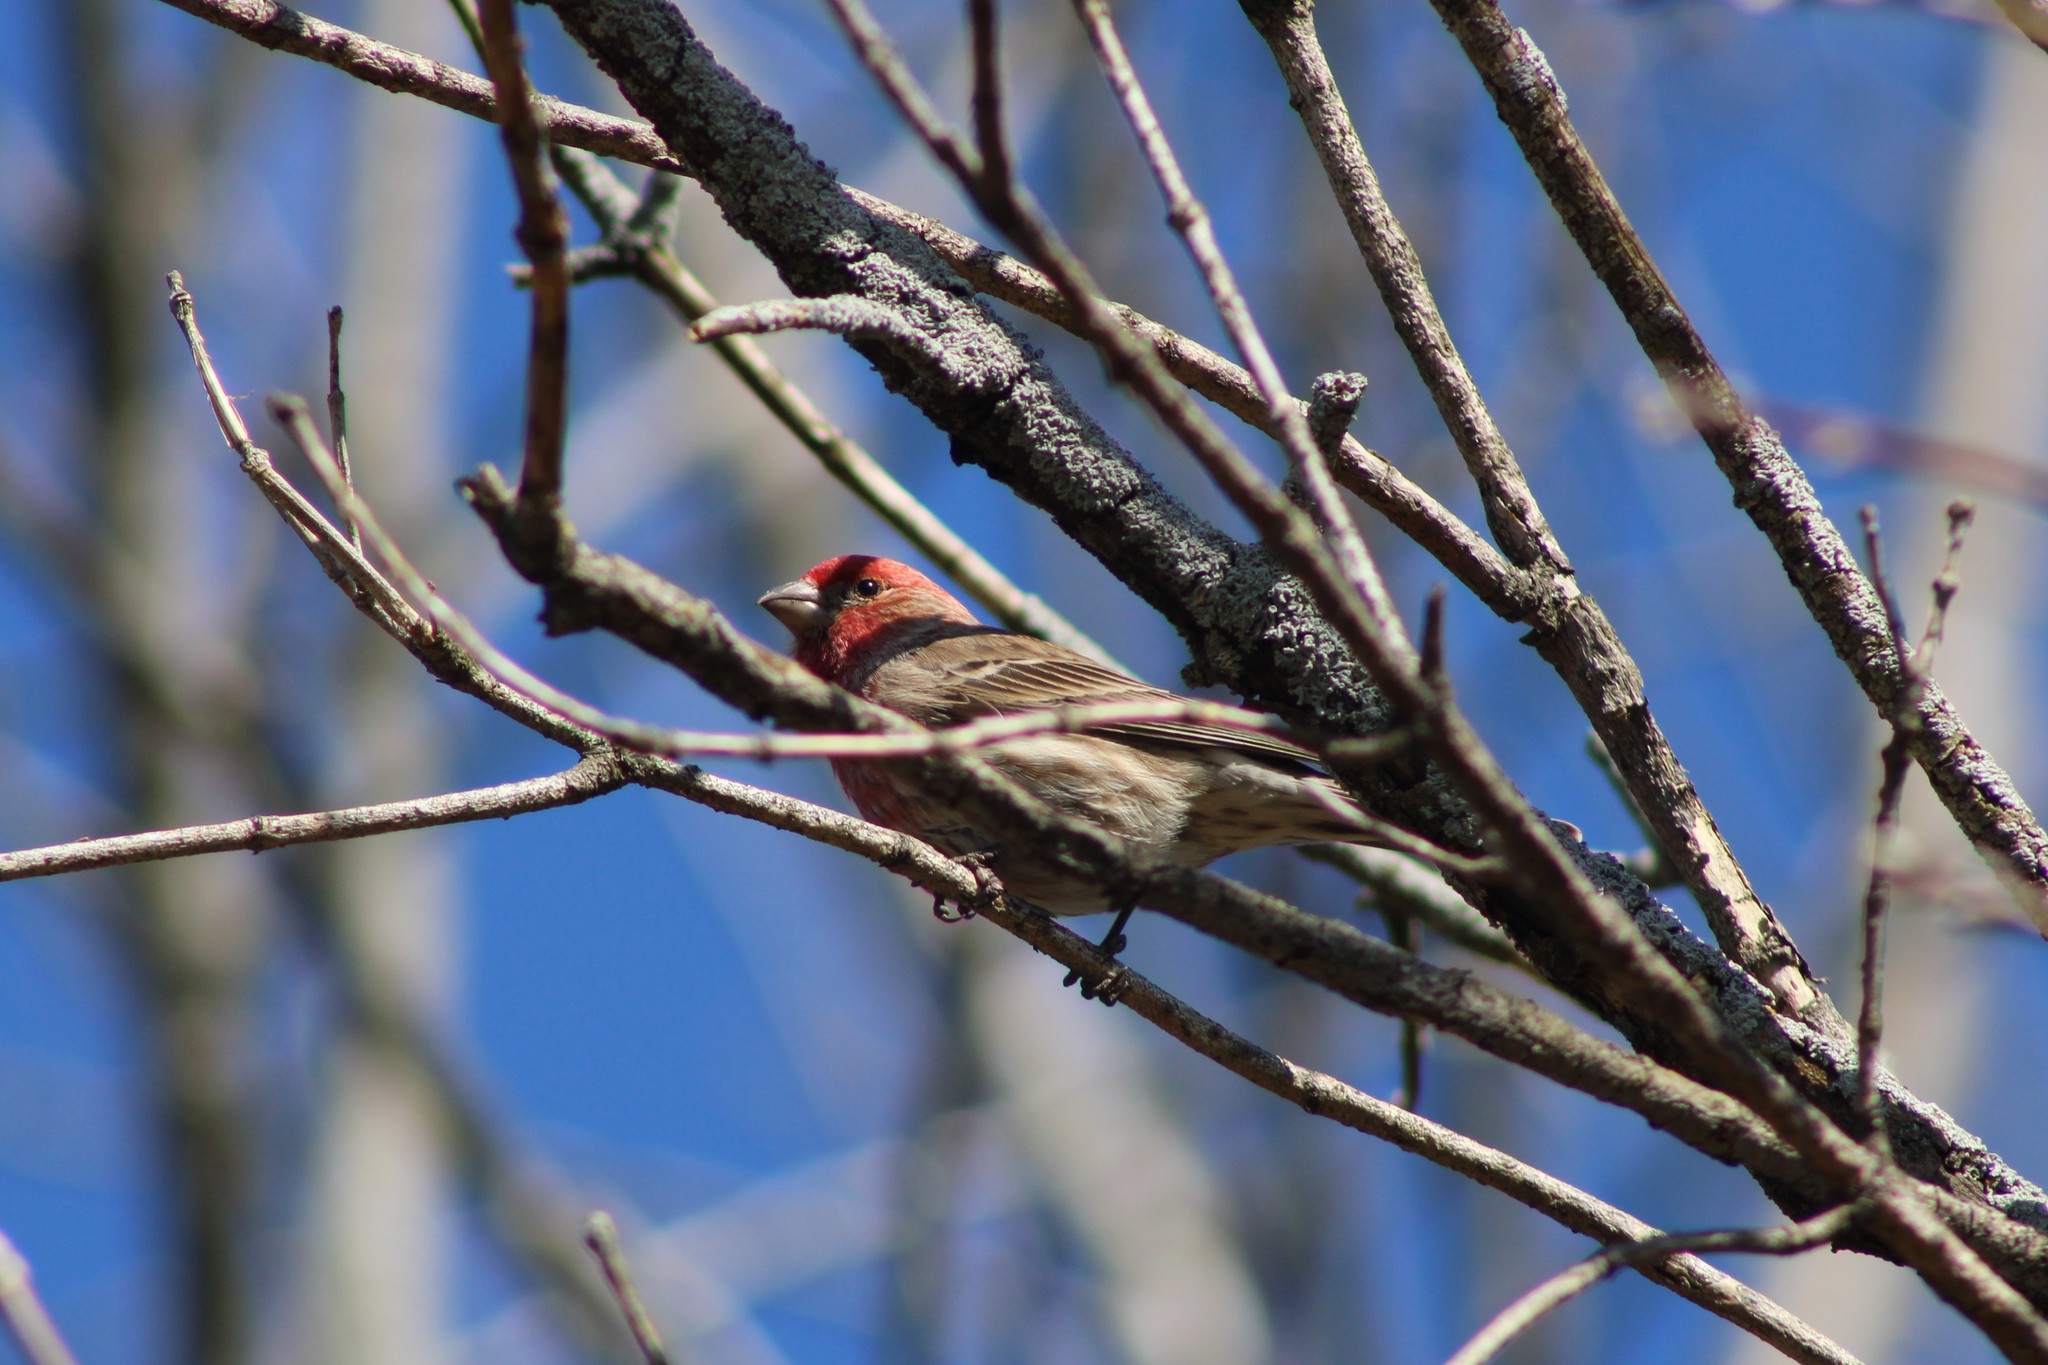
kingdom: Animalia
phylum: Chordata
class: Aves
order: Passeriformes
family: Fringillidae
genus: Haemorhous
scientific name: Haemorhous mexicanus
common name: House finch
